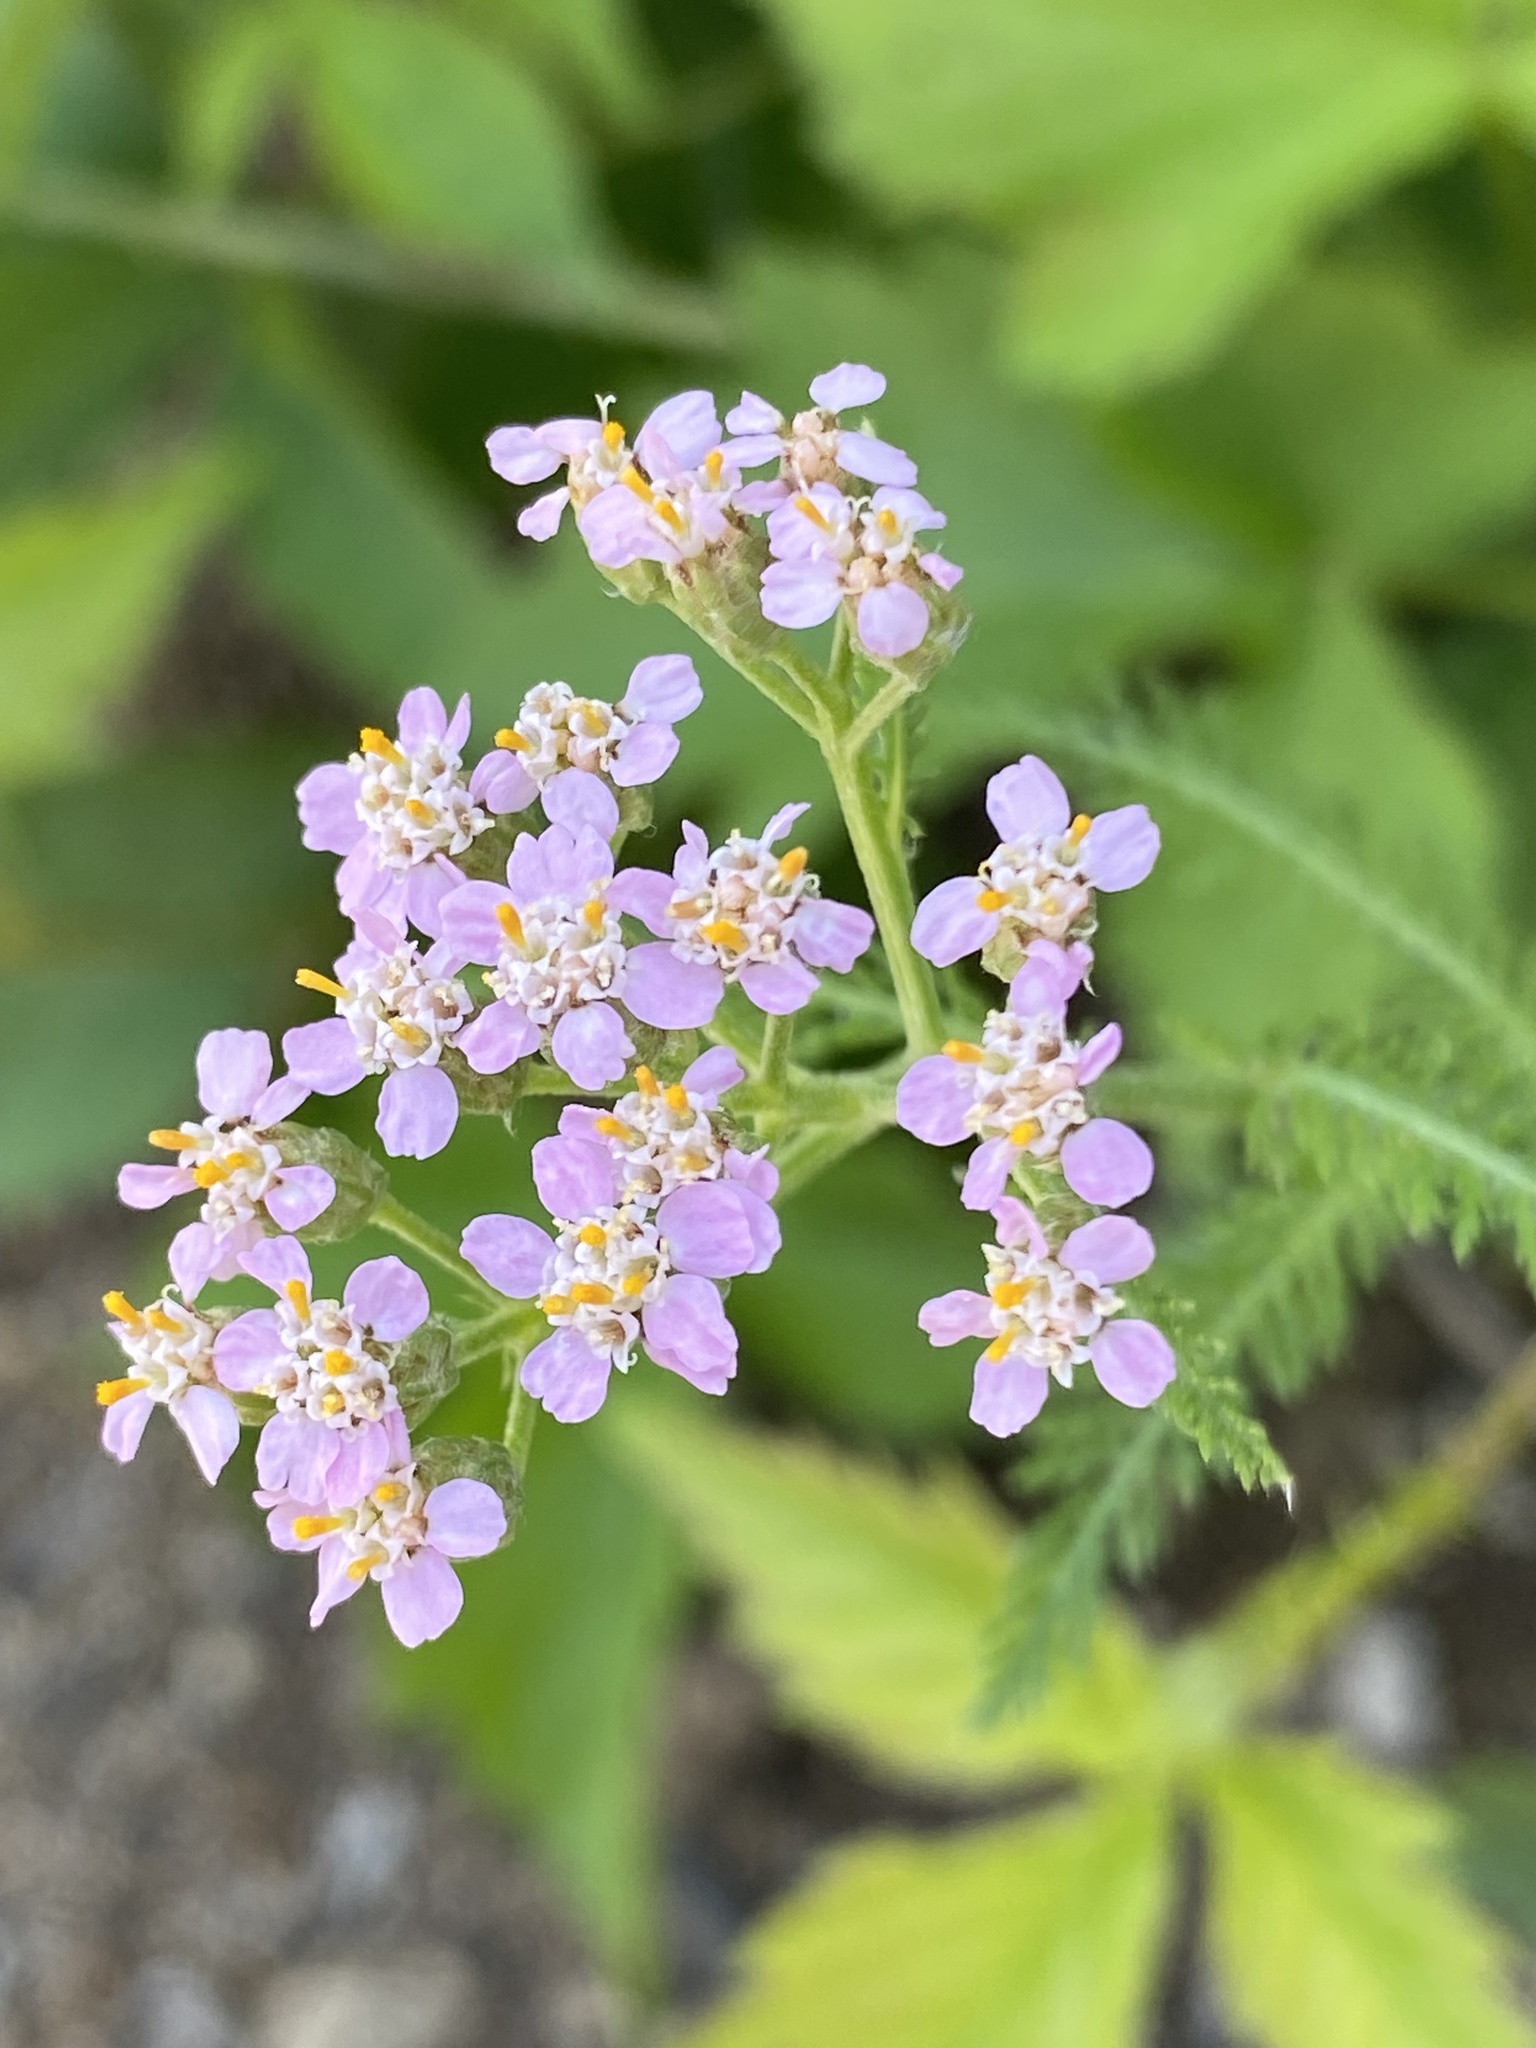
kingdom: Plantae
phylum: Tracheophyta
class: Magnoliopsida
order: Asterales
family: Asteraceae
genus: Achillea
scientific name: Achillea millefolium
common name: Yarrow
